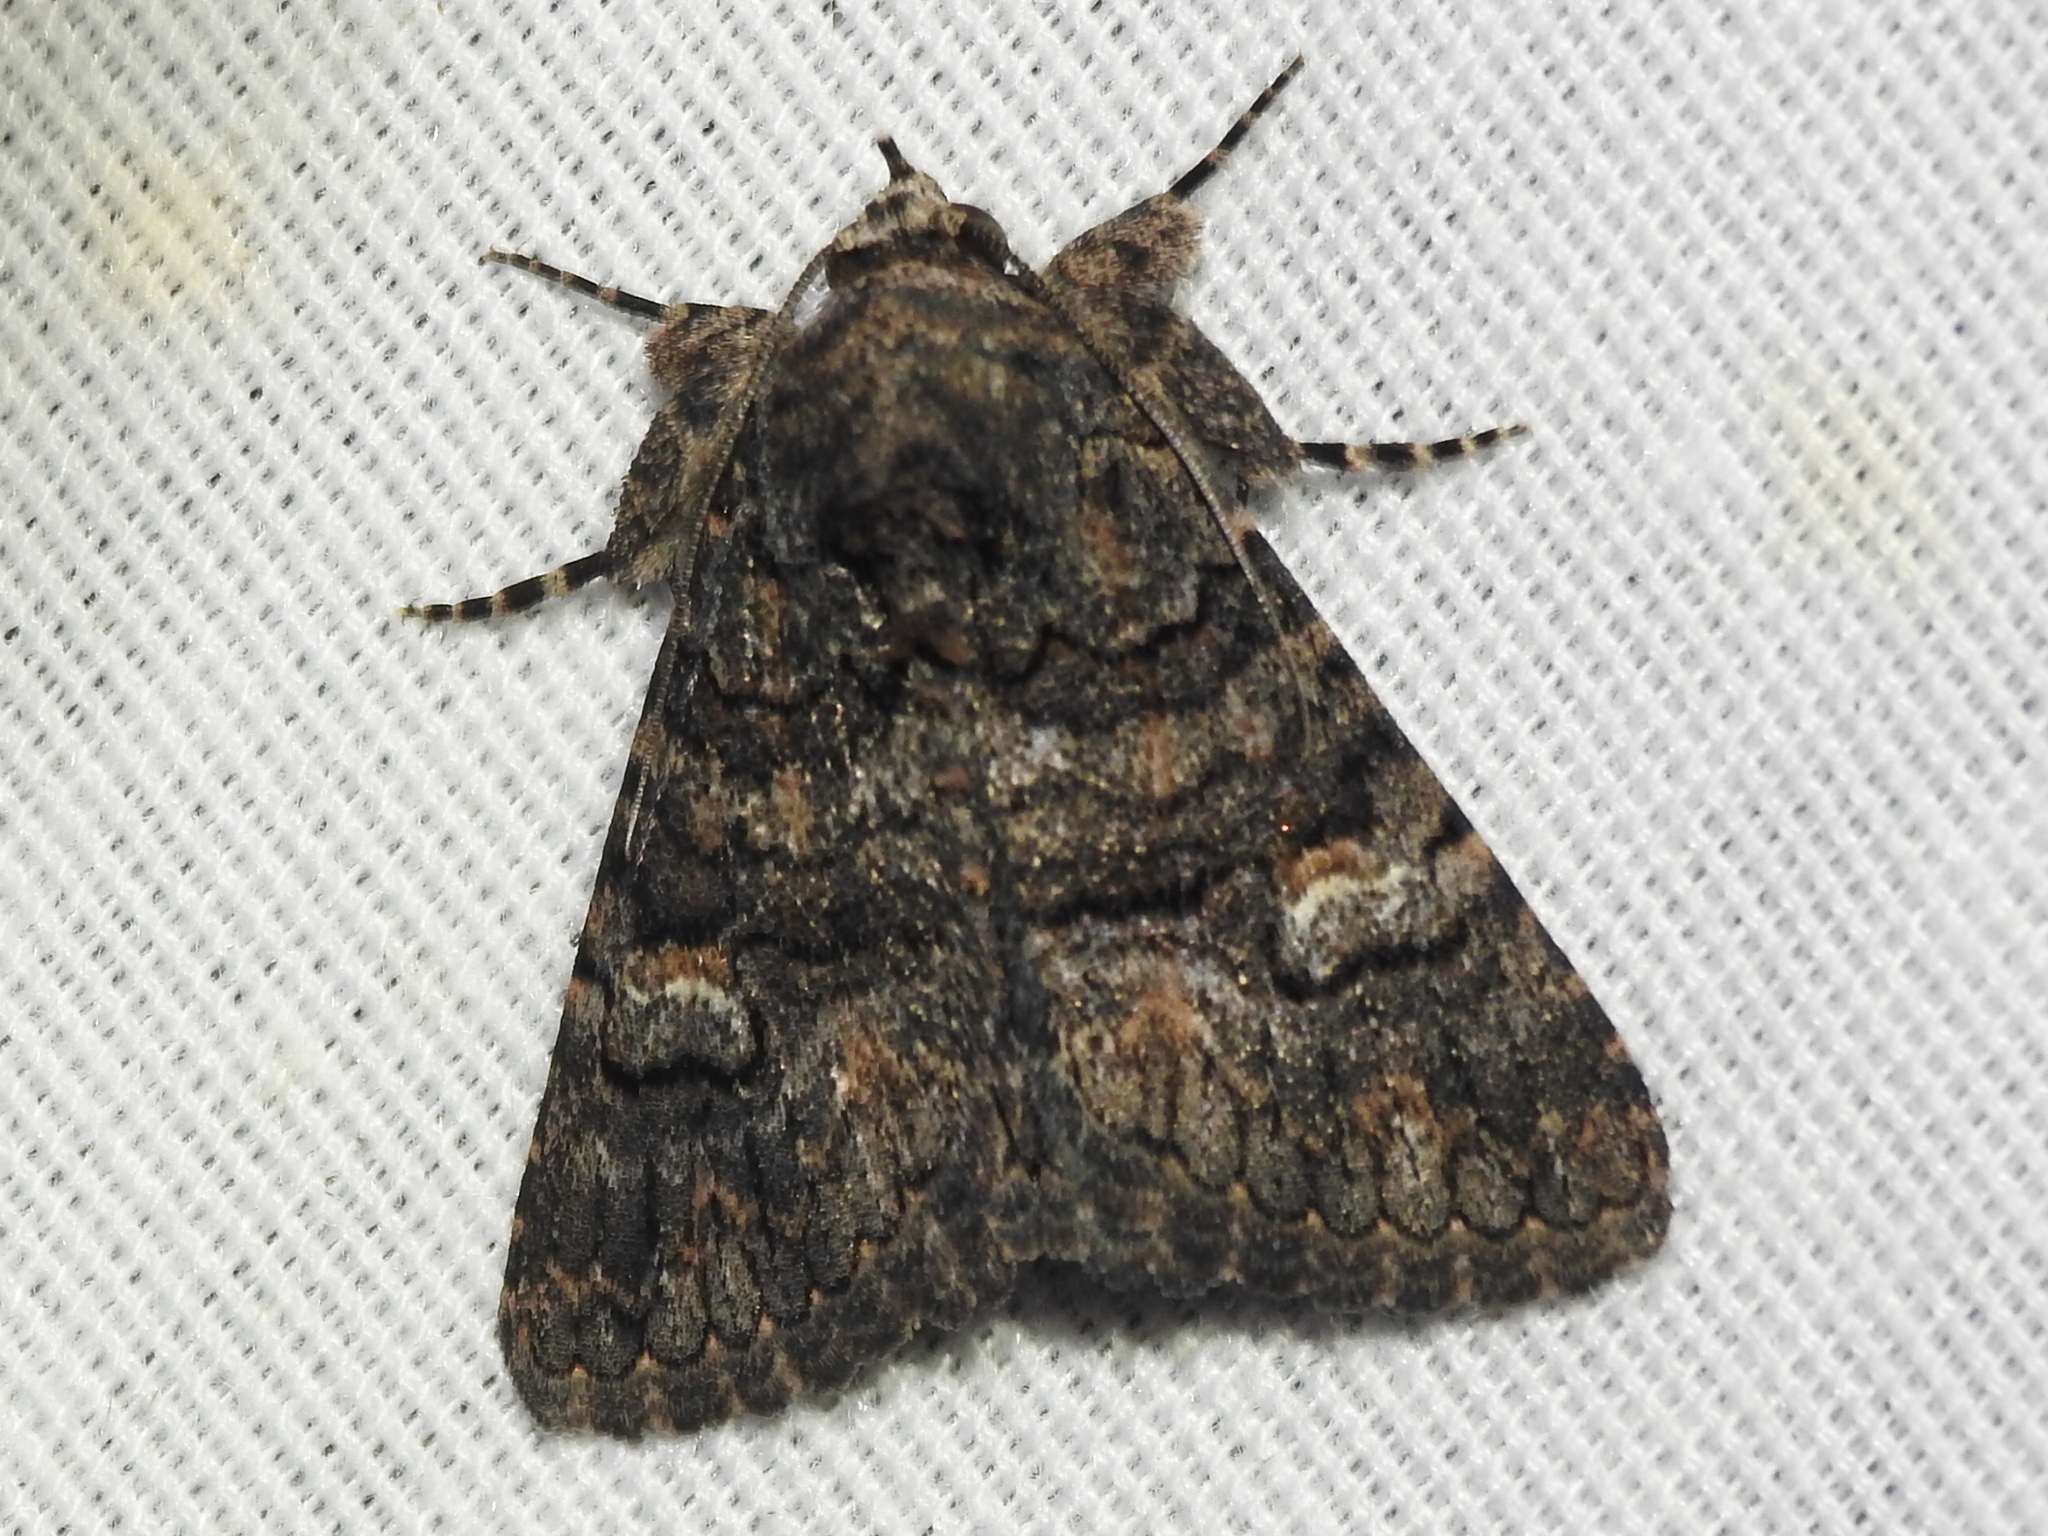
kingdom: Animalia
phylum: Arthropoda
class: Insecta
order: Lepidoptera
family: Erebidae
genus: Elousa
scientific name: Elousa mima
